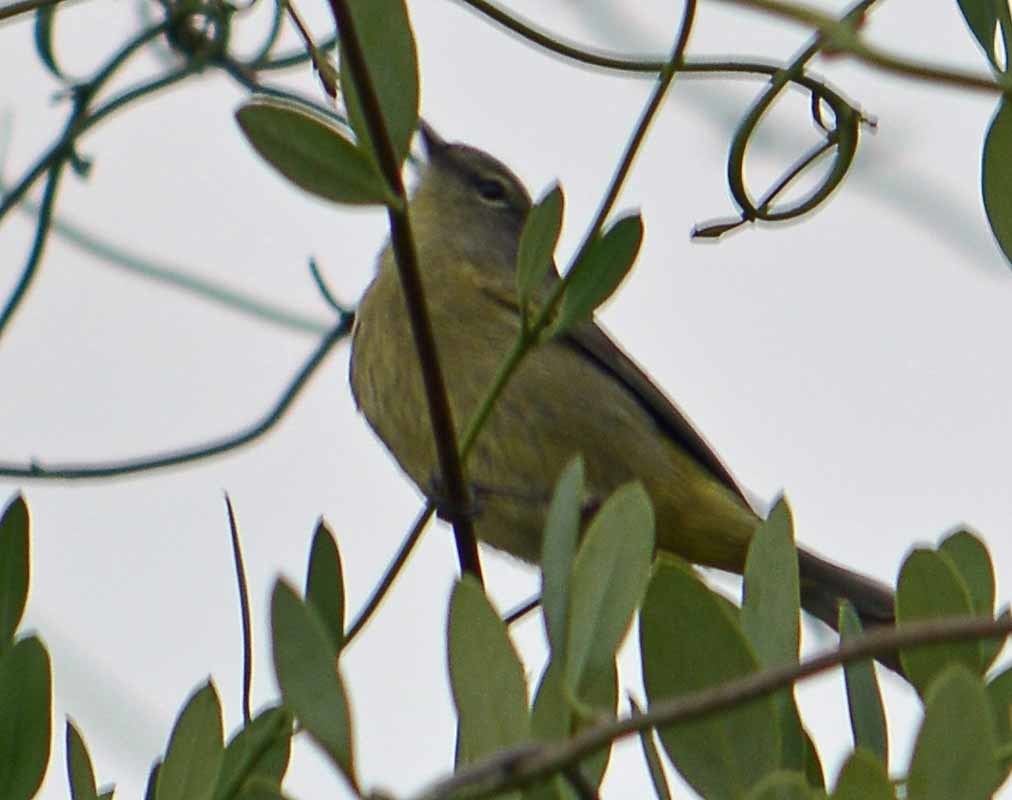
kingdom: Animalia
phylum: Chordata
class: Aves
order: Passeriformes
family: Parulidae
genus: Leiothlypis
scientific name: Leiothlypis celata
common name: Orange-crowned warbler
